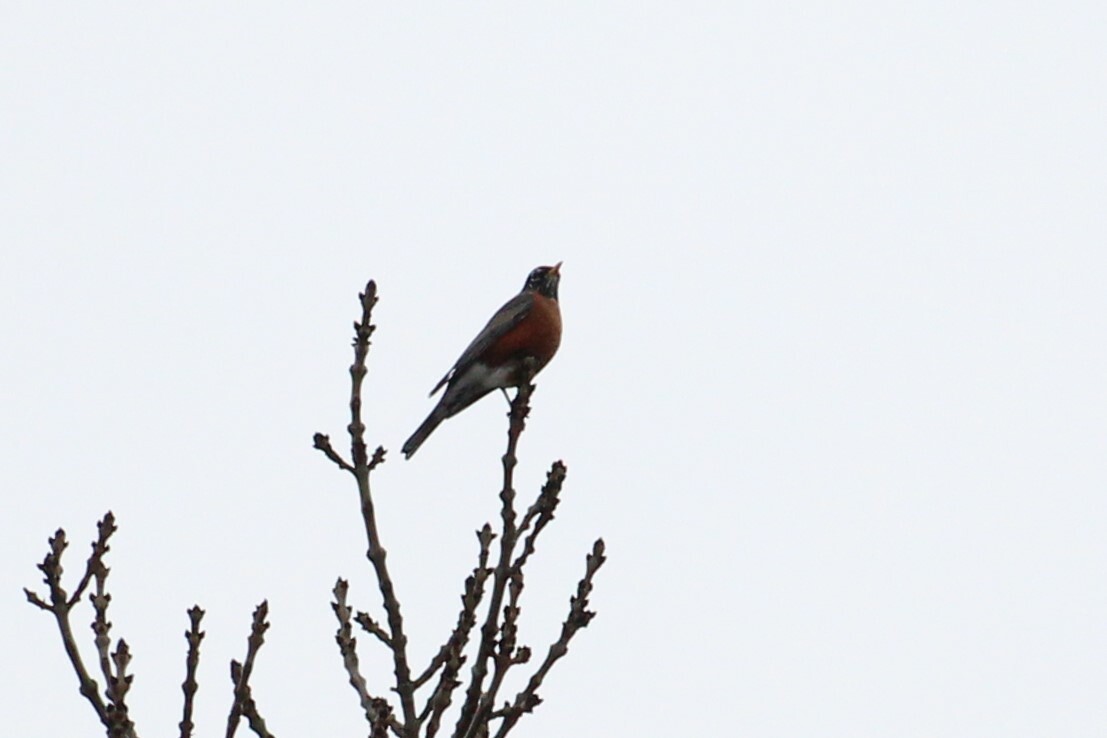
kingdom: Animalia
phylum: Chordata
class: Aves
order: Passeriformes
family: Turdidae
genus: Turdus
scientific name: Turdus migratorius
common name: American robin
